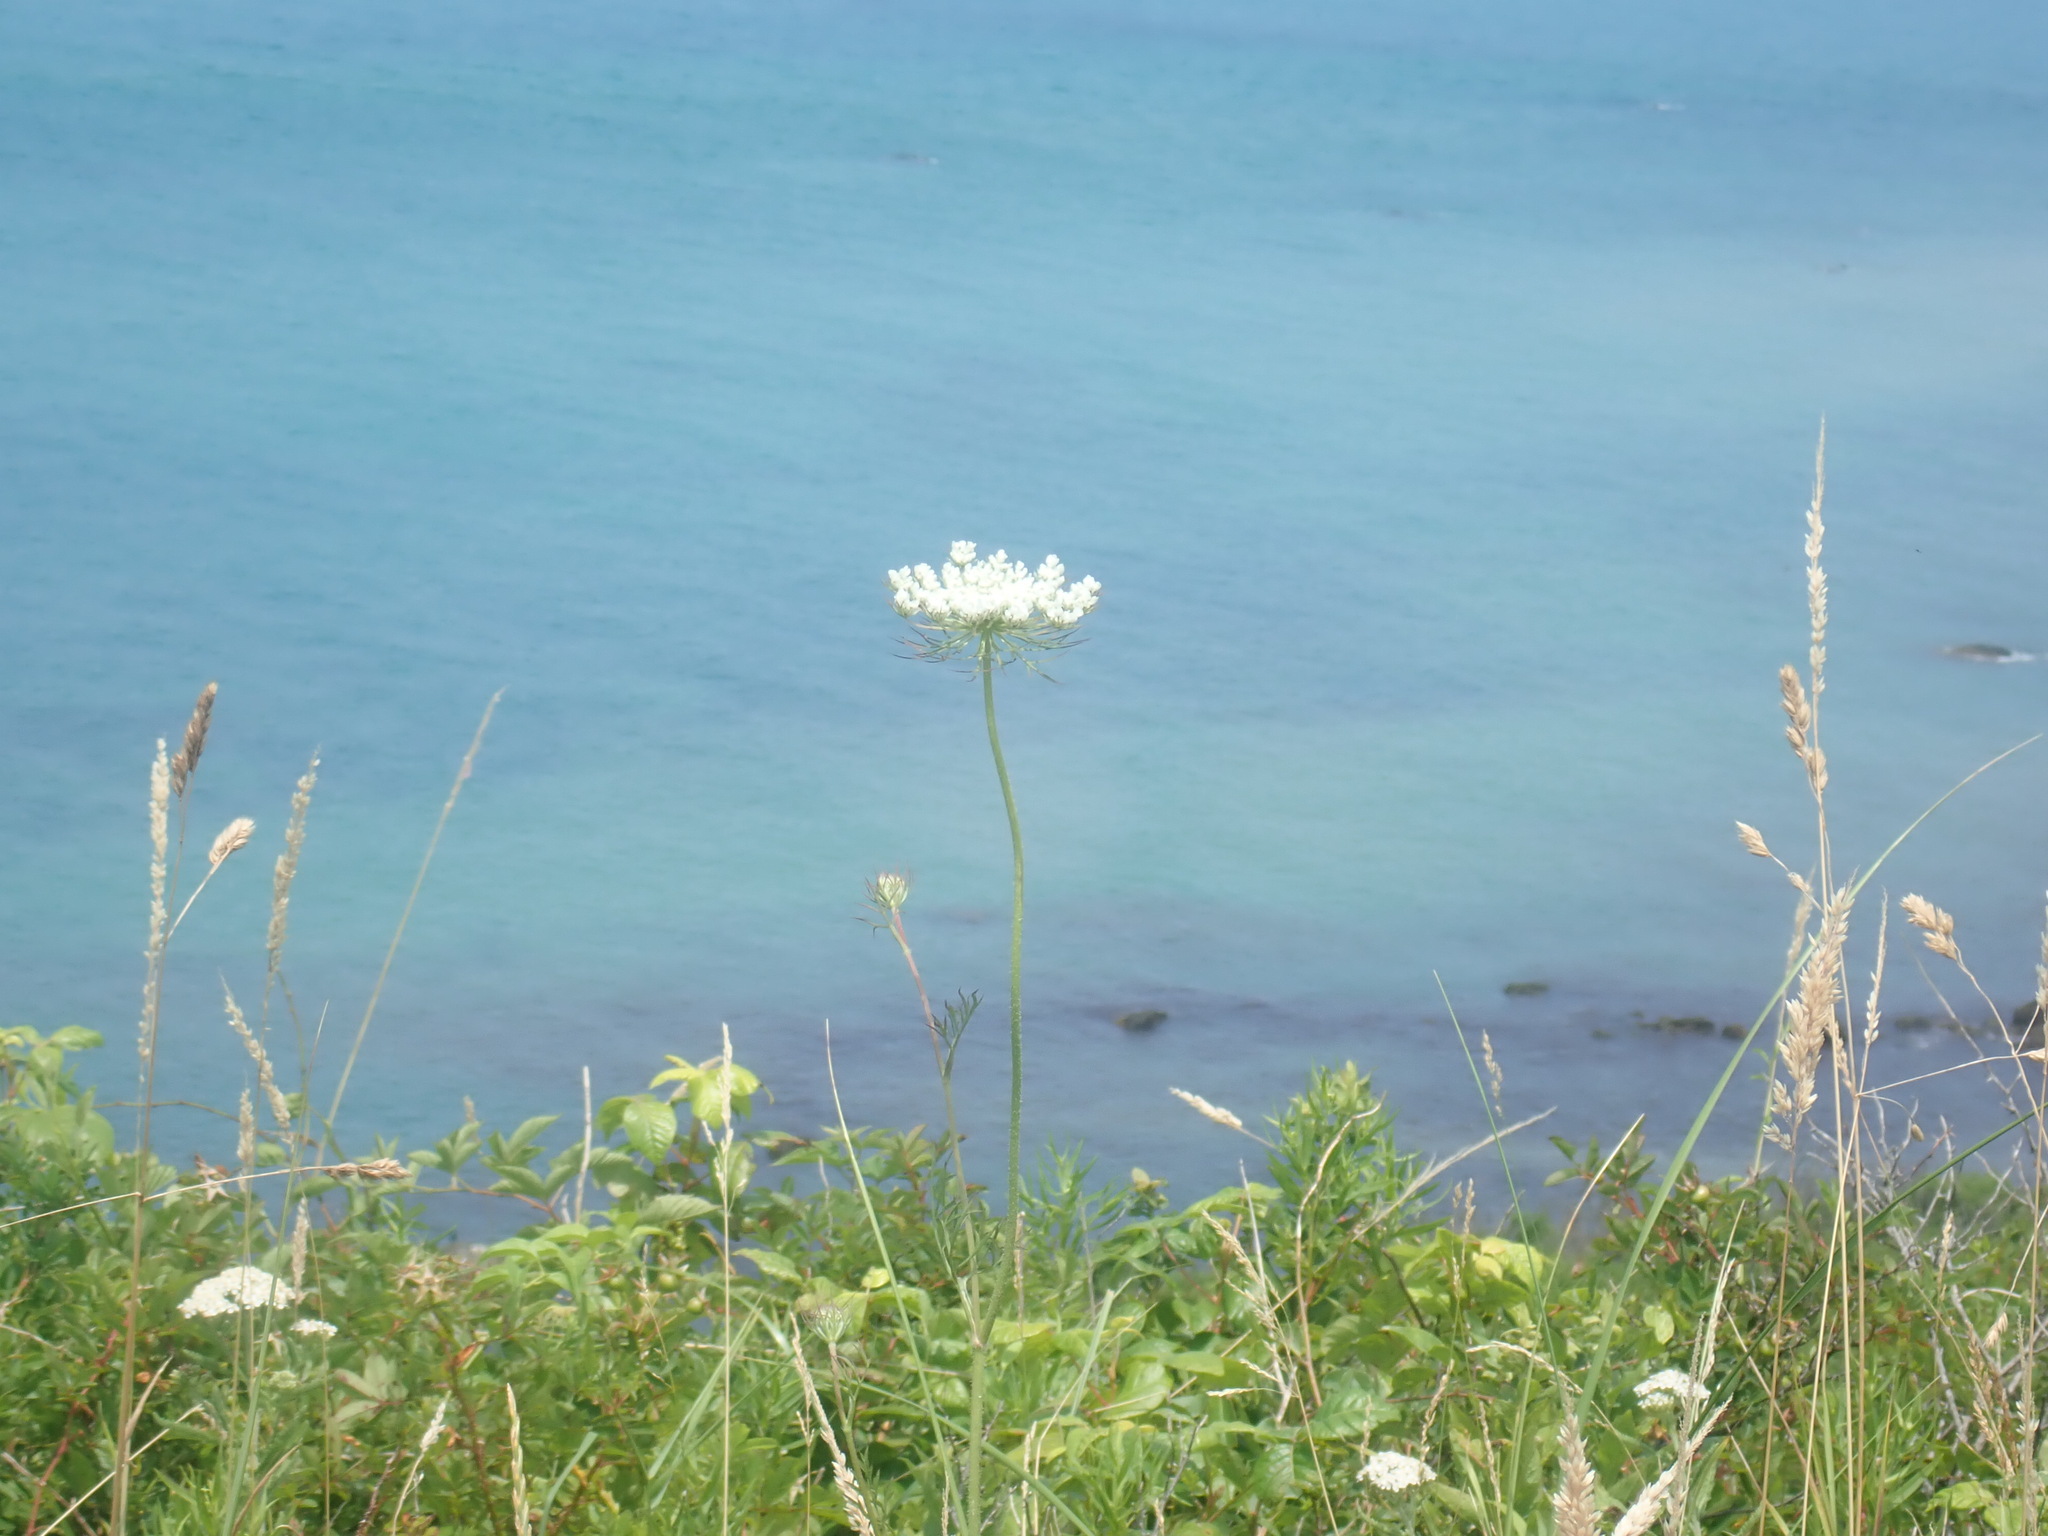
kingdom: Plantae
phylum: Tracheophyta
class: Magnoliopsida
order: Apiales
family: Apiaceae
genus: Daucus
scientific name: Daucus carota
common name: Wild carrot
